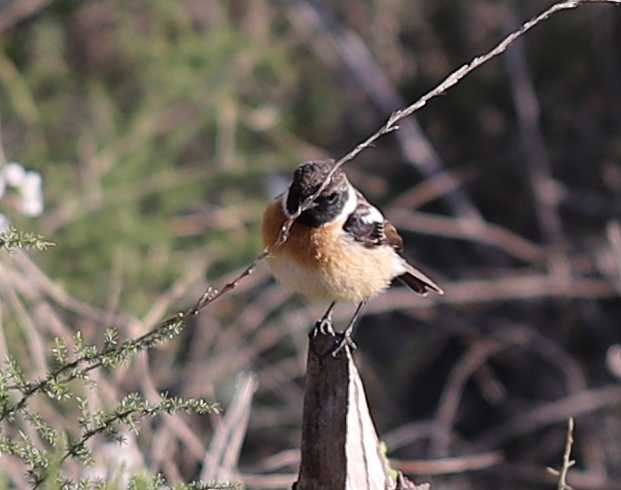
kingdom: Animalia
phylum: Chordata
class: Aves
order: Passeriformes
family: Muscicapidae
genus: Saxicola
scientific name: Saxicola rubicola
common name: European stonechat
